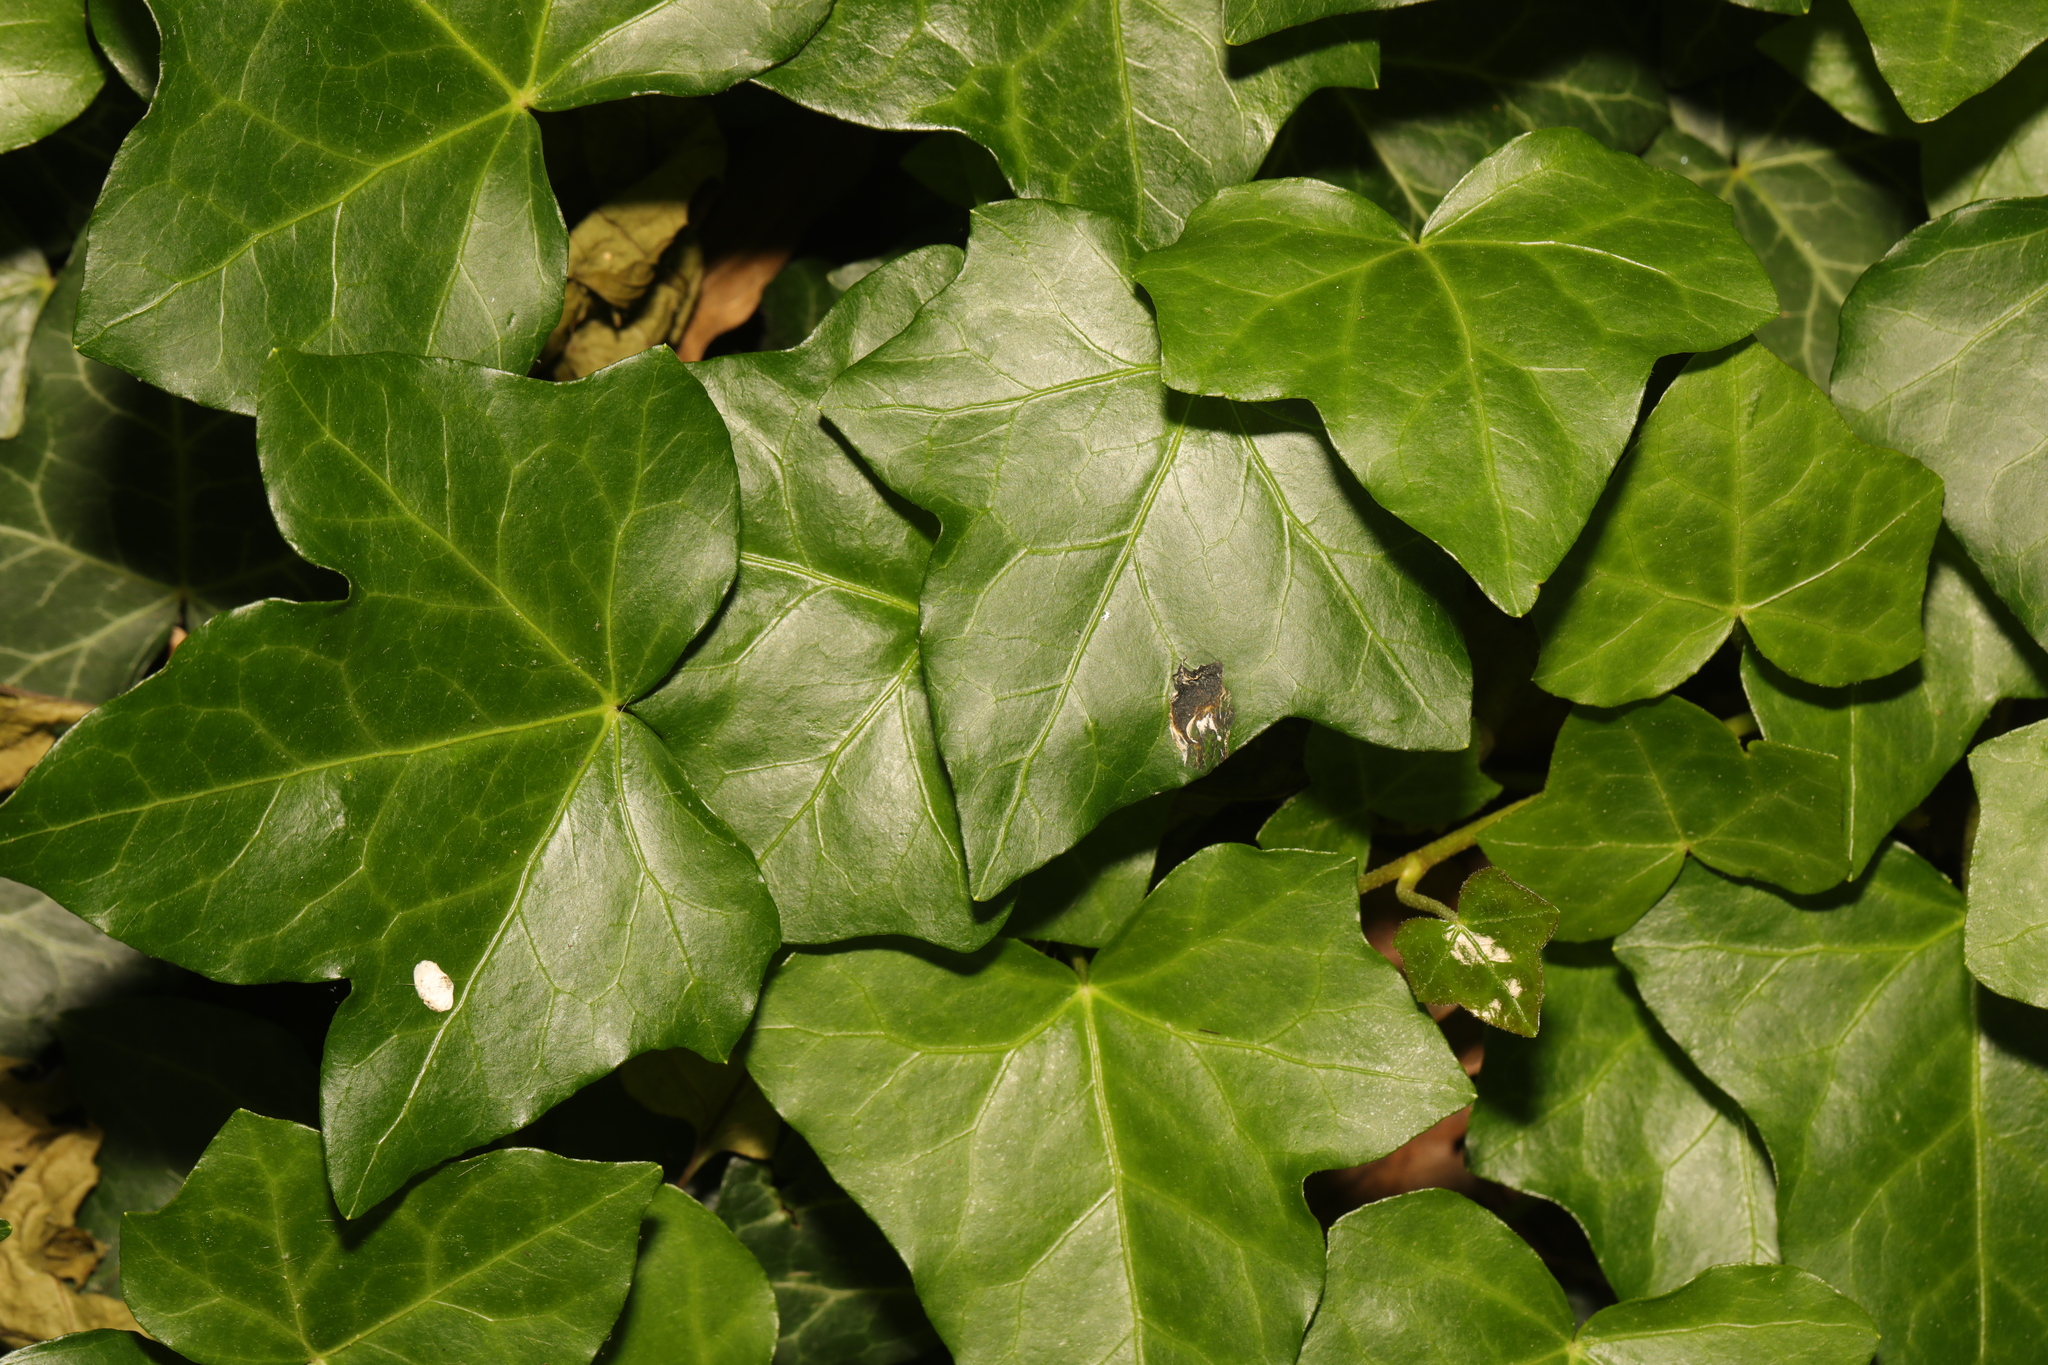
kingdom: Plantae
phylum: Tracheophyta
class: Magnoliopsida
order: Apiales
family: Araliaceae
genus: Hedera
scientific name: Hedera hibernica
